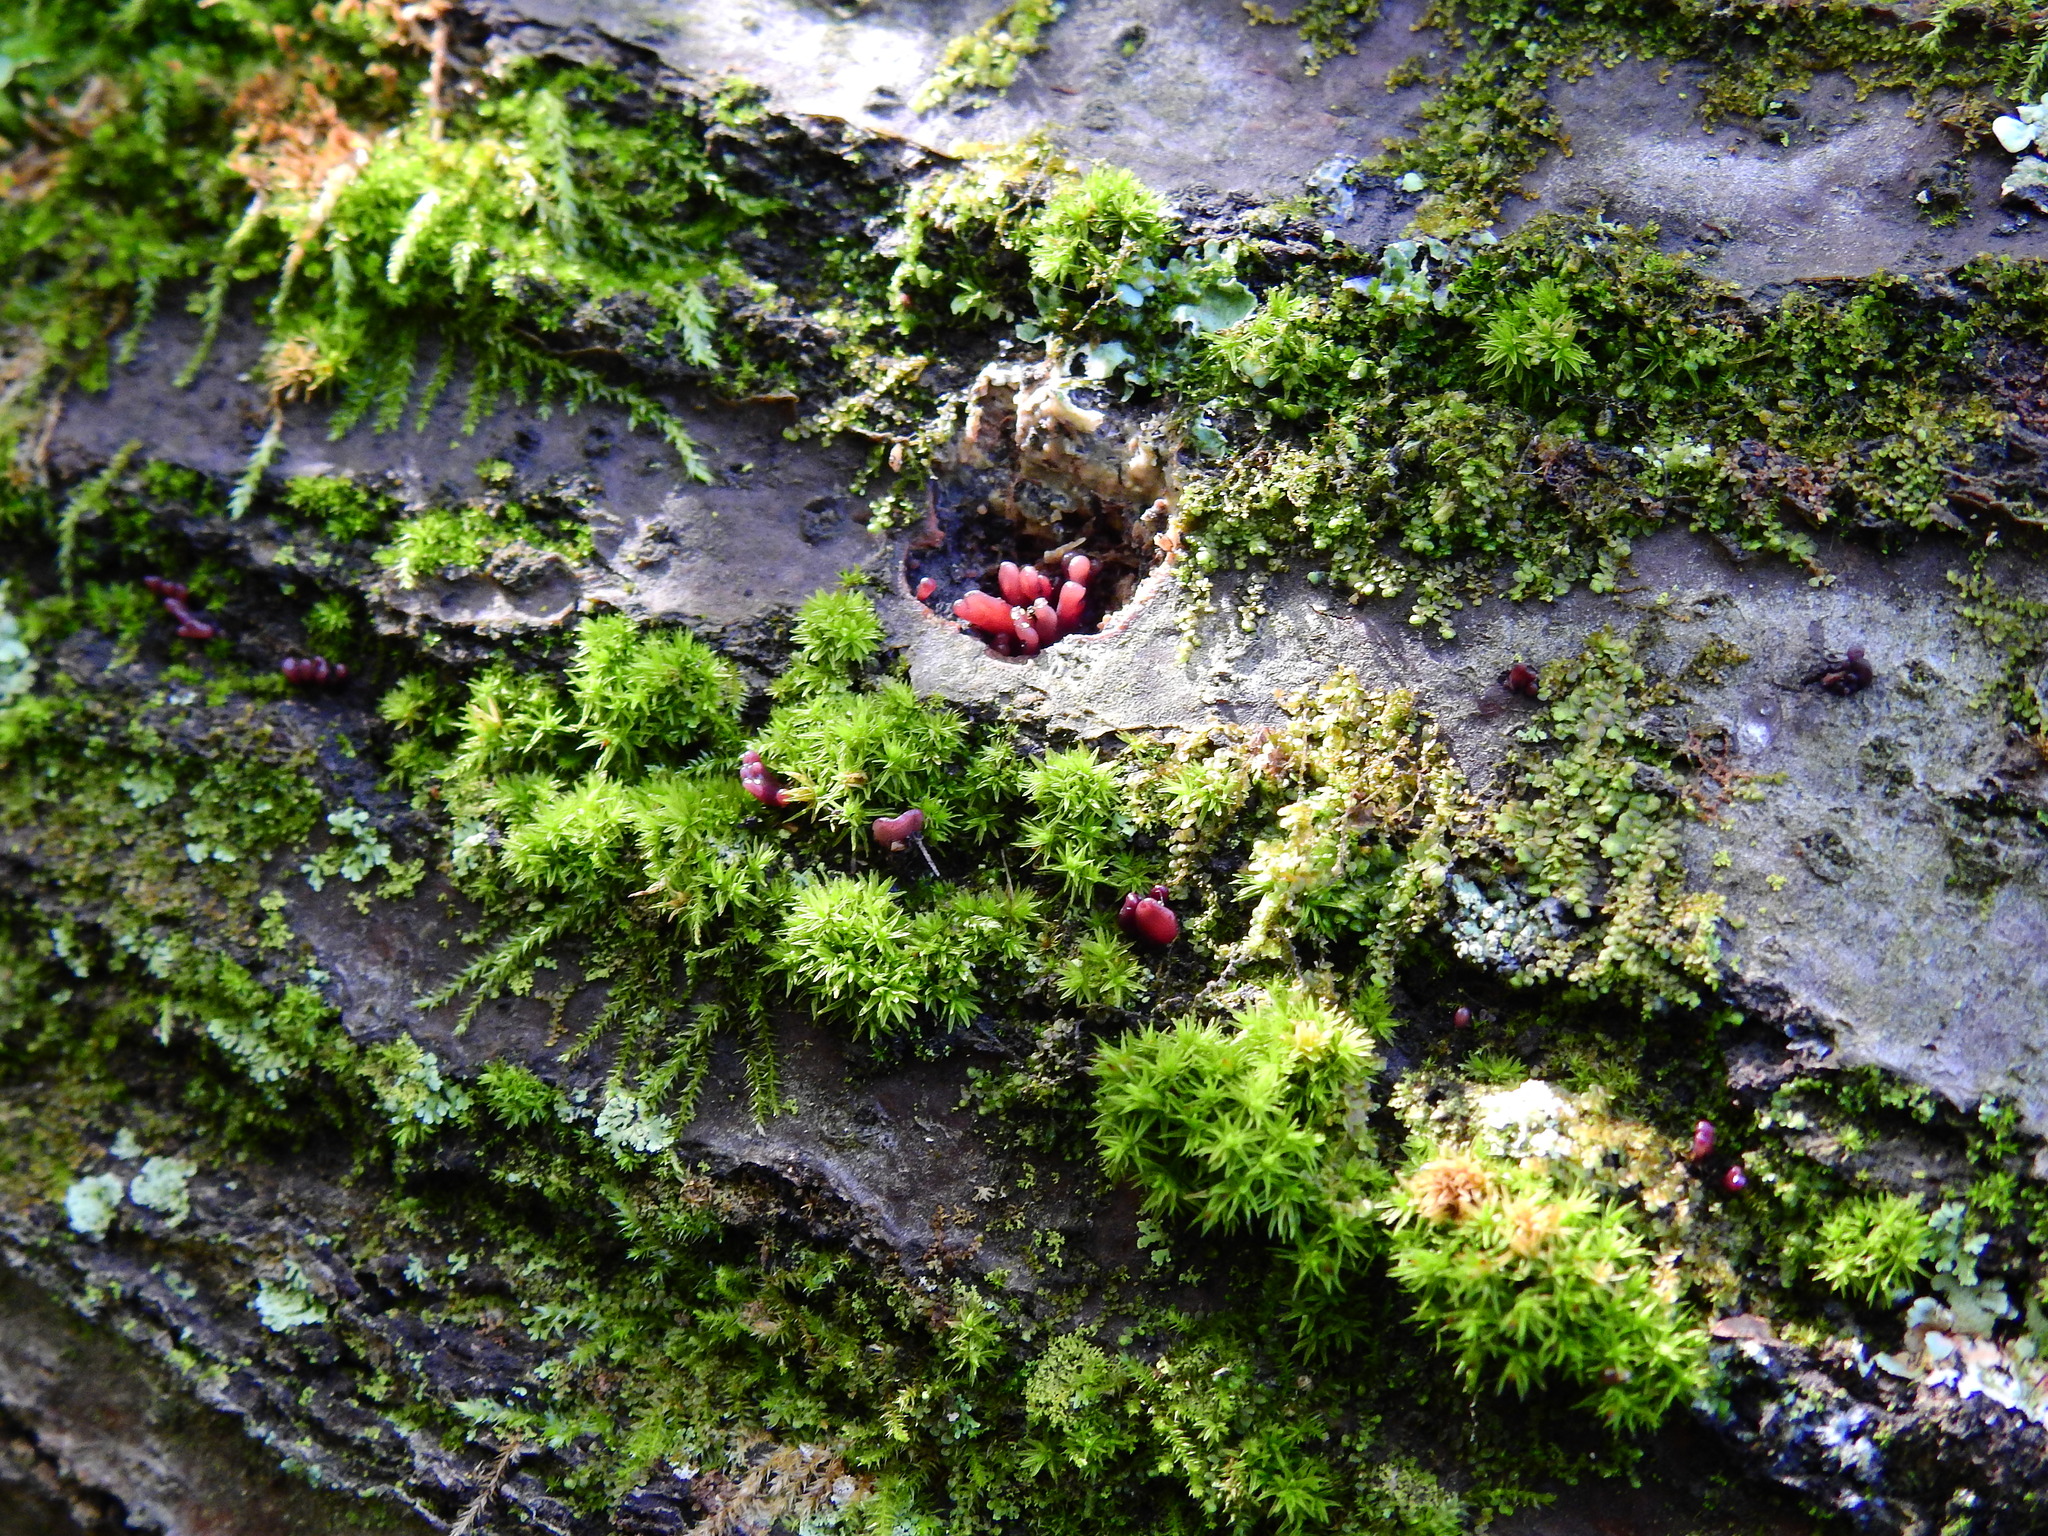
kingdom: Fungi
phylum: Ascomycota
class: Leotiomycetes
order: Helotiales
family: Gelatinodiscaceae
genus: Ascocoryne
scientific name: Ascocoryne sarcoides
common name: Purple jellydisc
